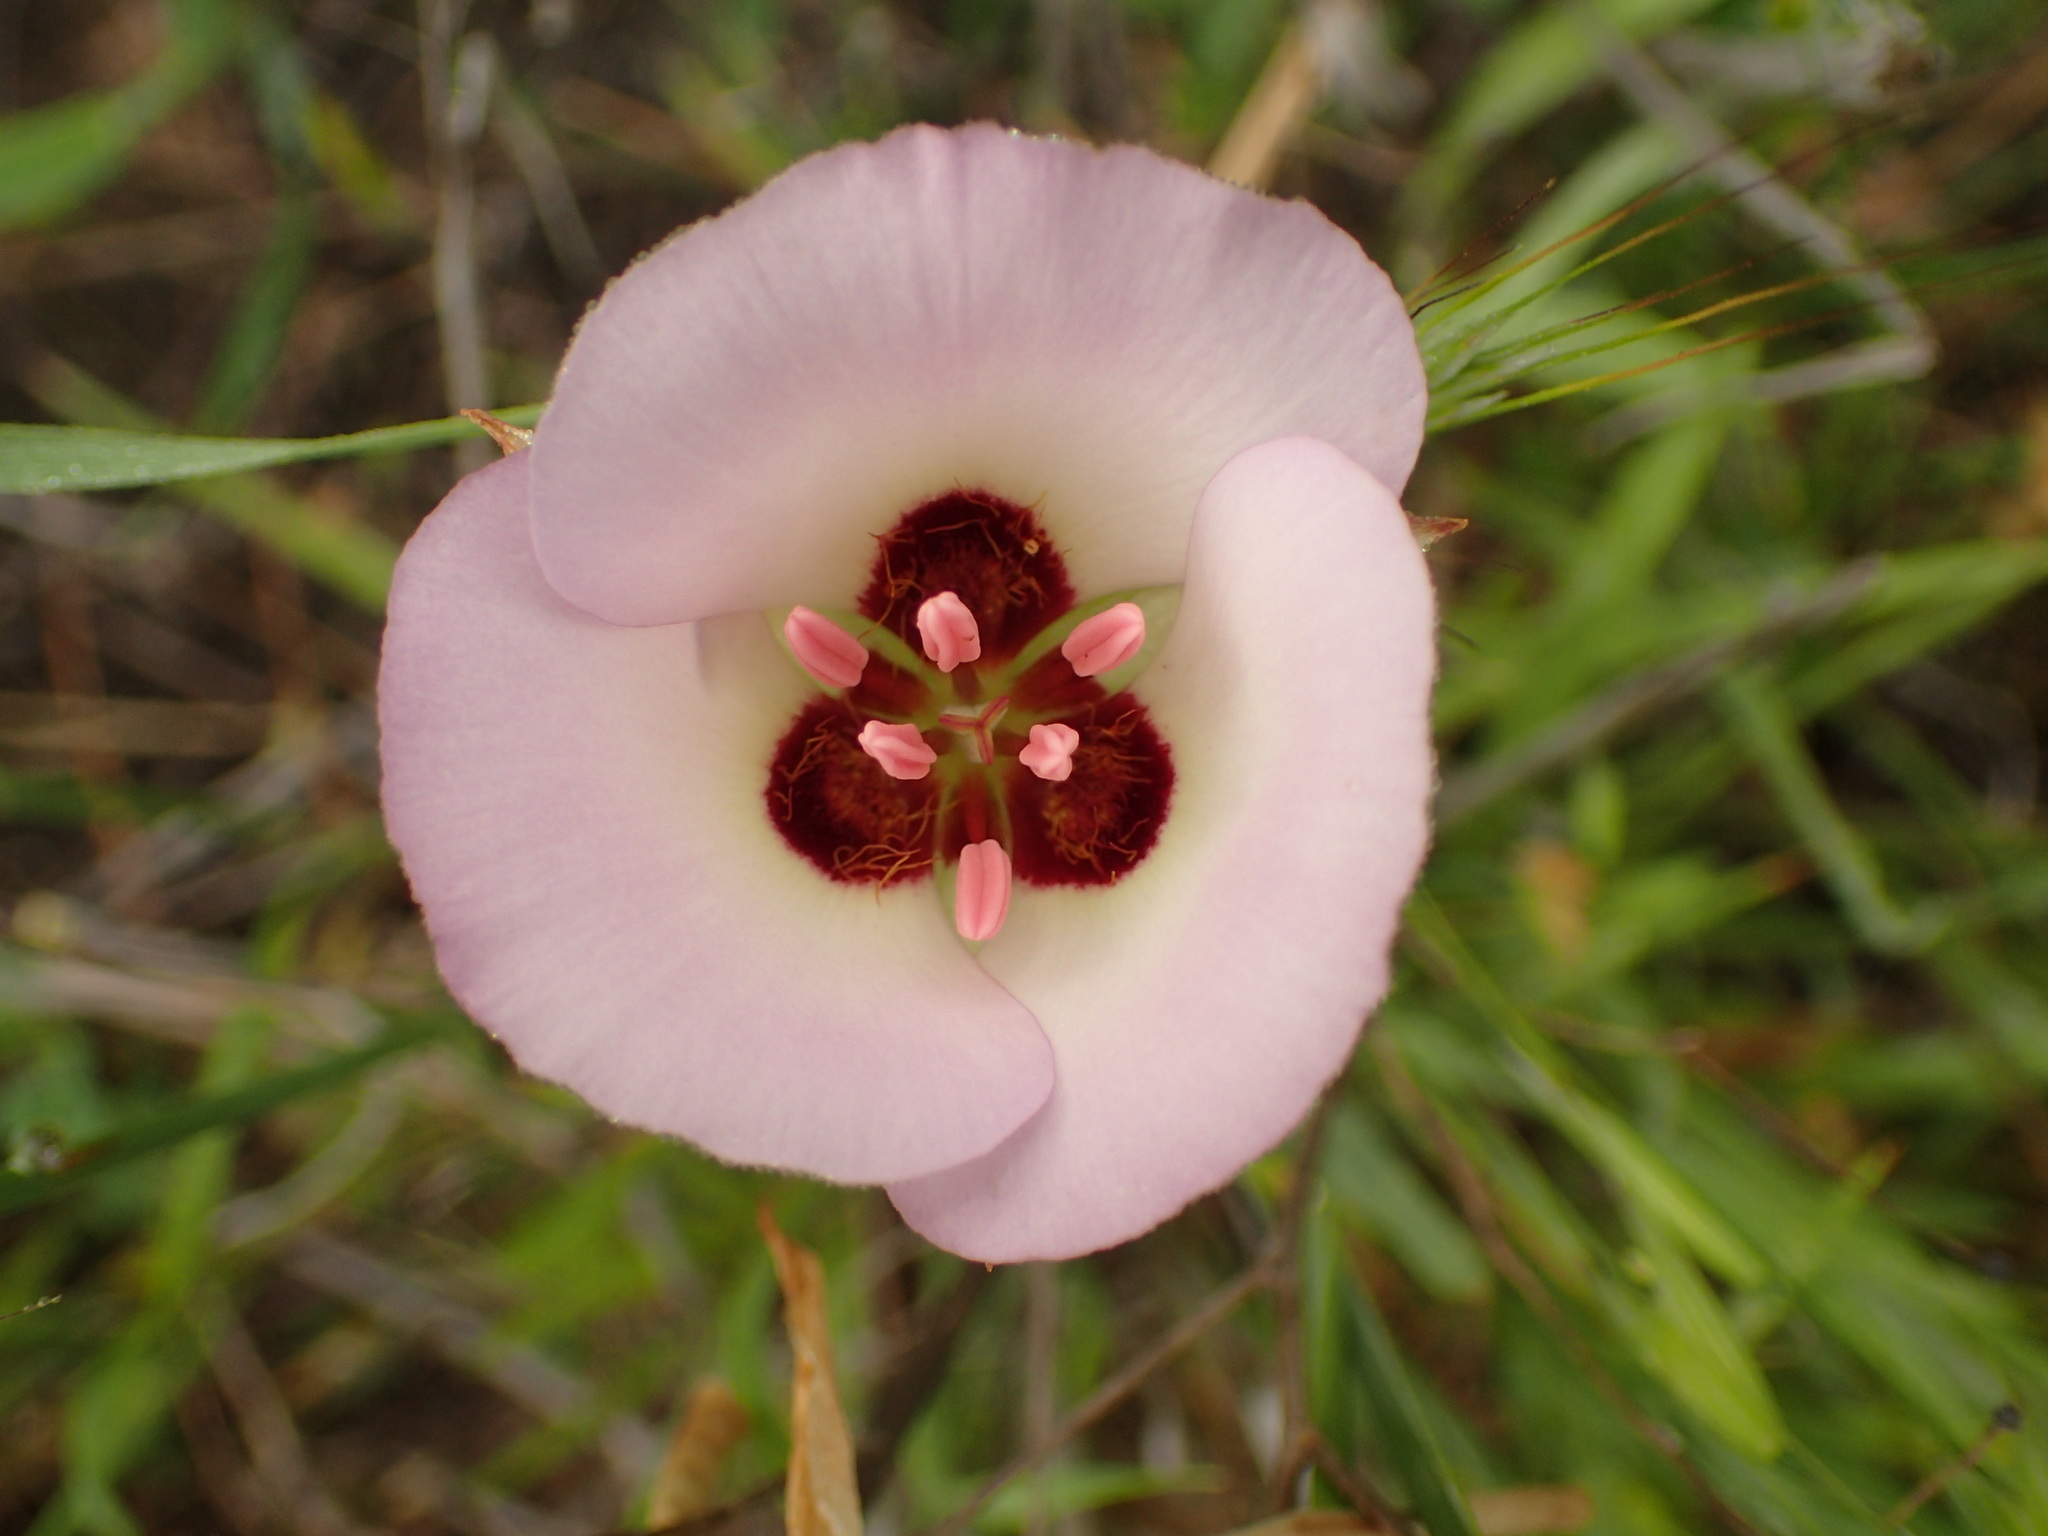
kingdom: Plantae
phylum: Tracheophyta
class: Liliopsida
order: Liliales
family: Liliaceae
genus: Calochortus
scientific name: Calochortus catalinae
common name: Catalina mariposa-lily
